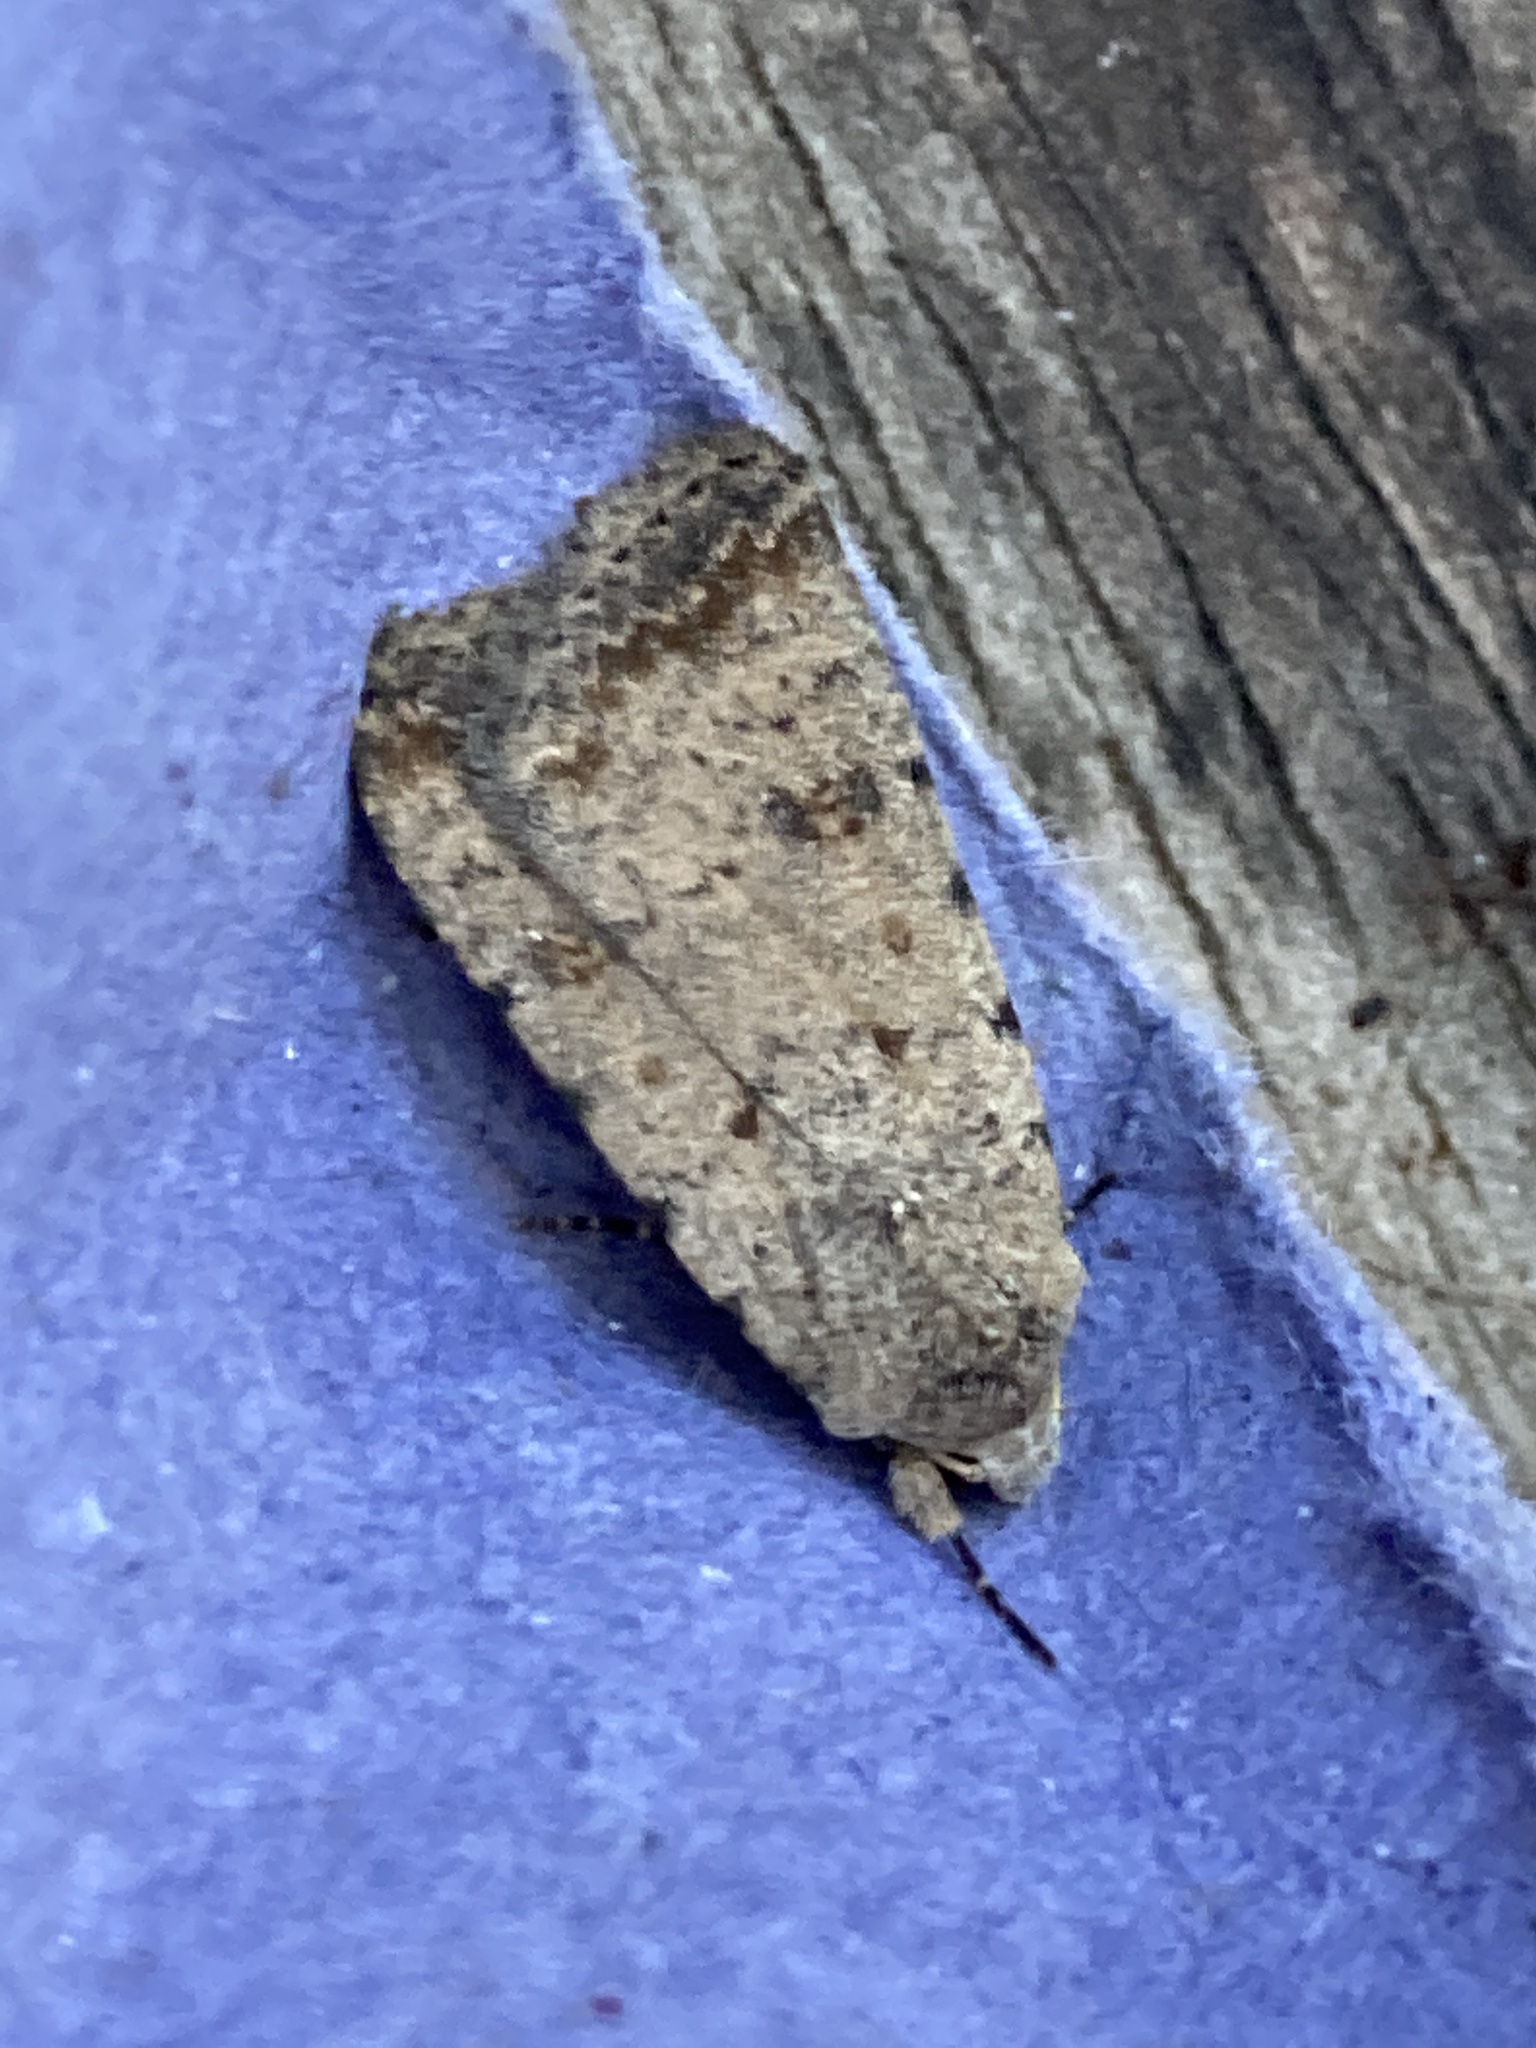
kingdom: Animalia
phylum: Arthropoda
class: Insecta
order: Lepidoptera
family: Noctuidae
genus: Caradrina
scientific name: Caradrina clavipalpis
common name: Pale mottled willow
